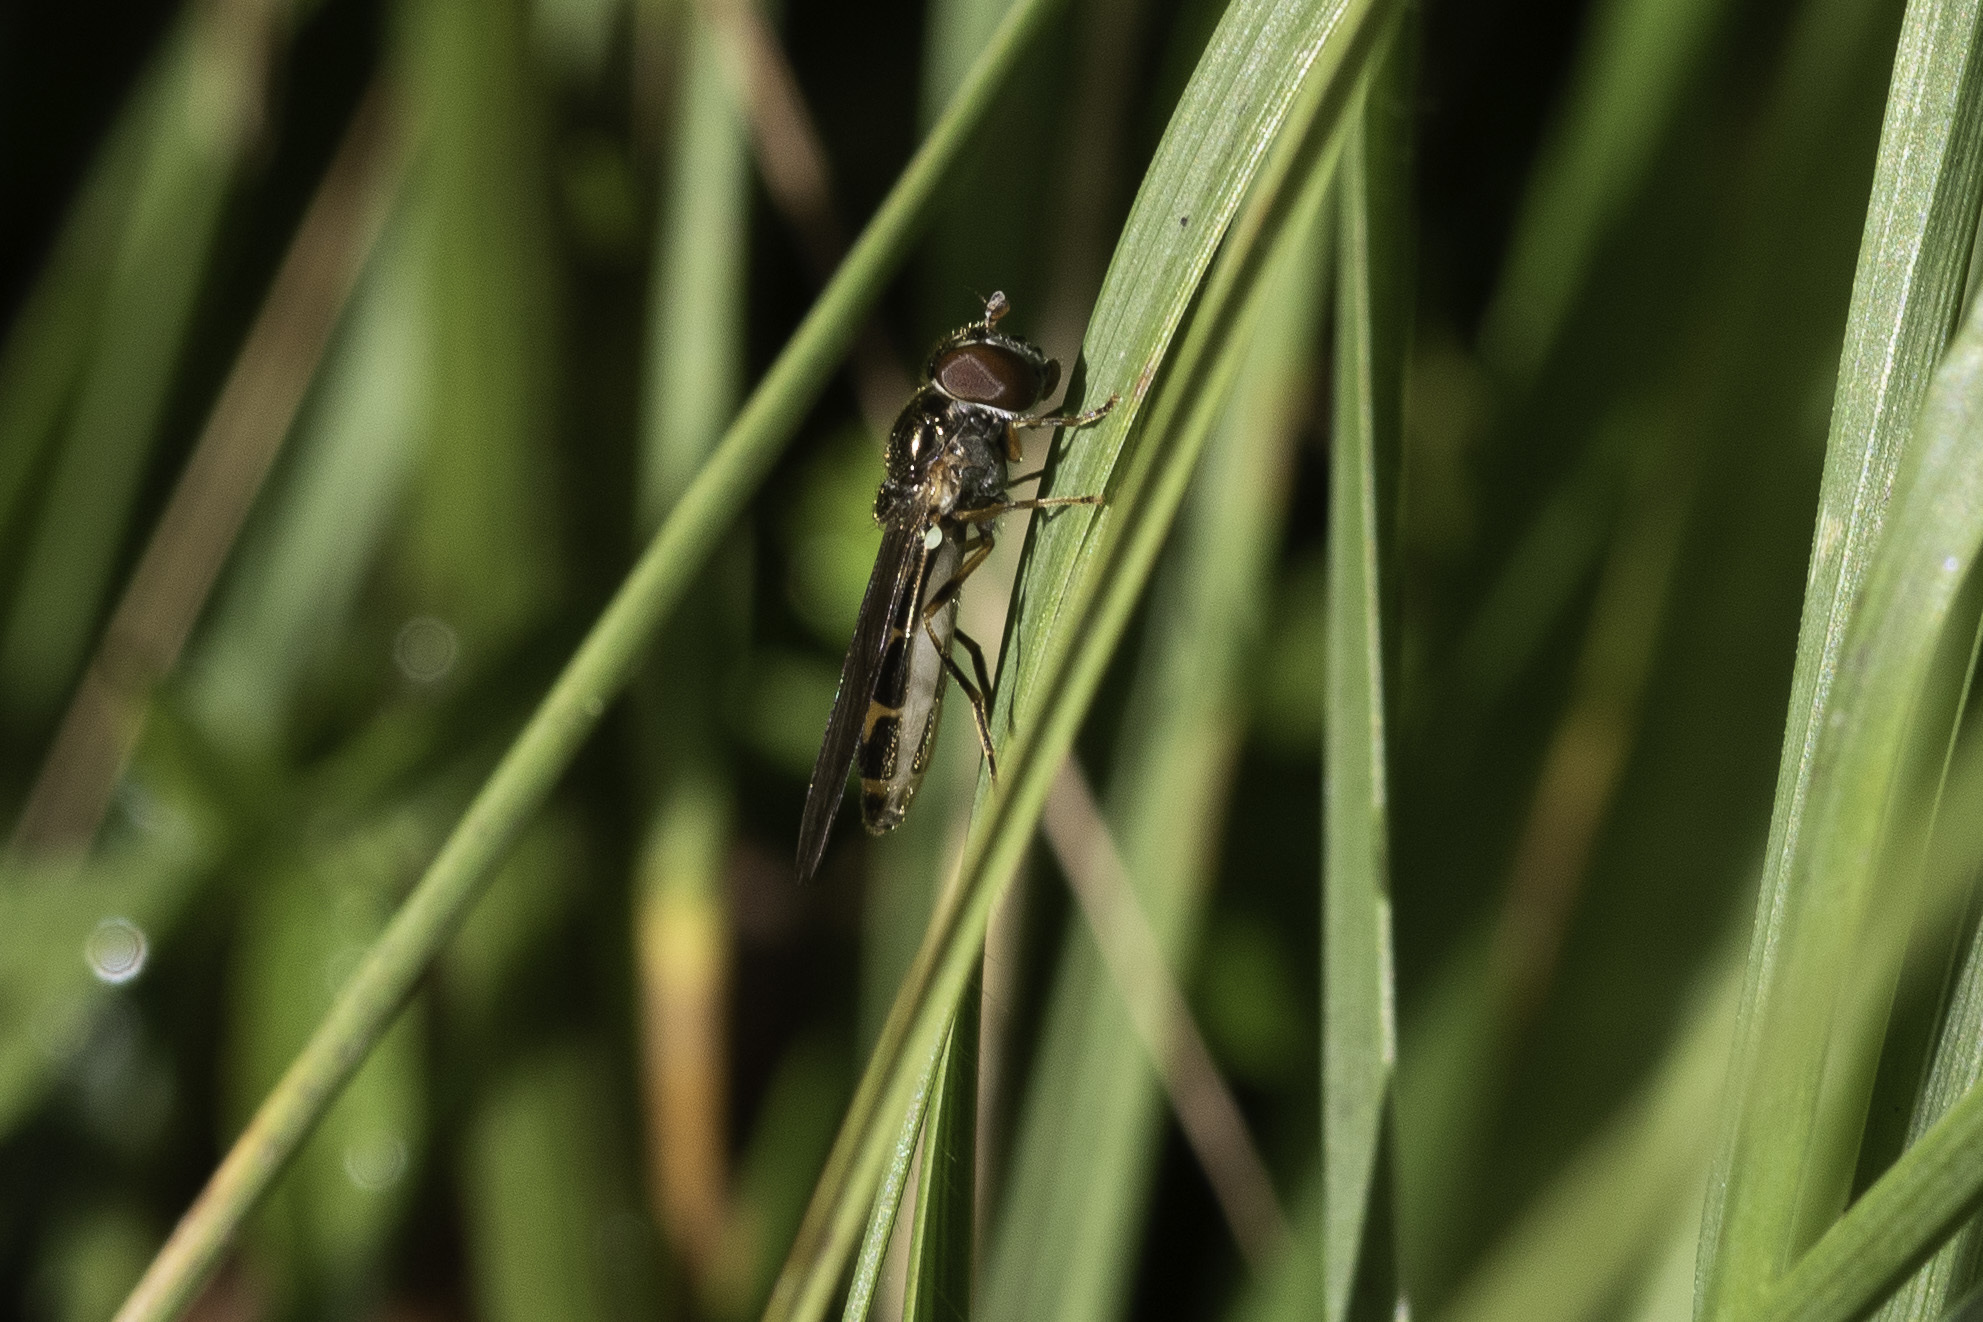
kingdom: Animalia
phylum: Arthropoda
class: Insecta
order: Diptera
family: Syrphidae
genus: Melanostoma
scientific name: Melanostoma scalare
